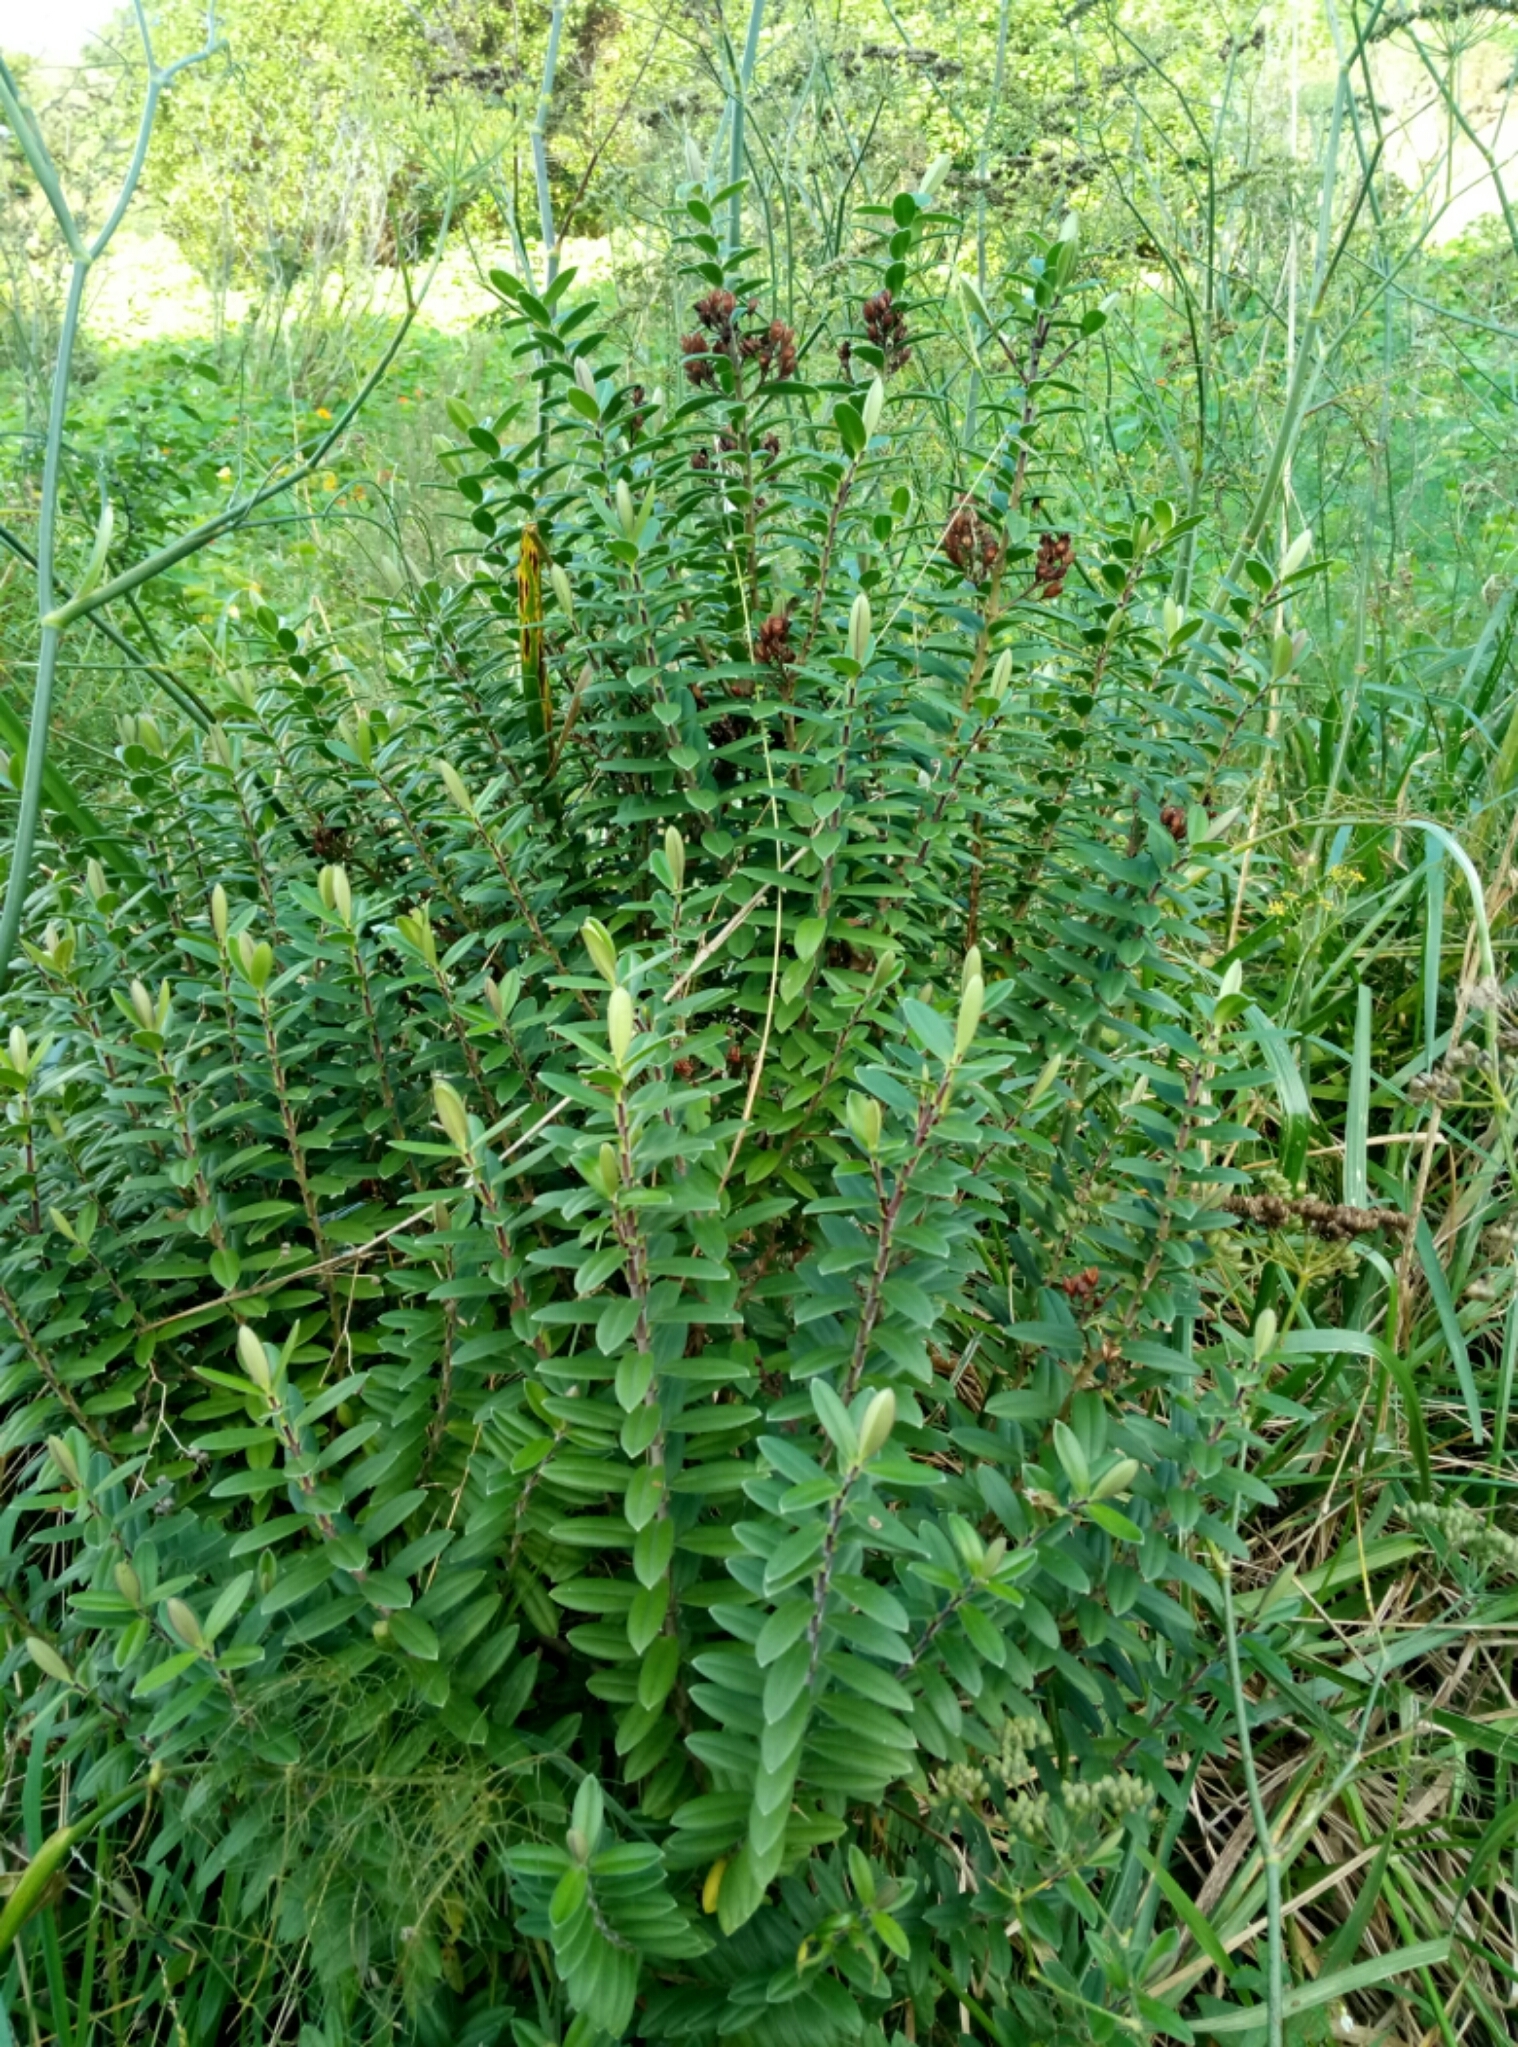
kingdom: Plantae
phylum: Tracheophyta
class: Magnoliopsida
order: Lamiales
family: Plantaginaceae
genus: Veronica
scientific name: Veronica elliptica
